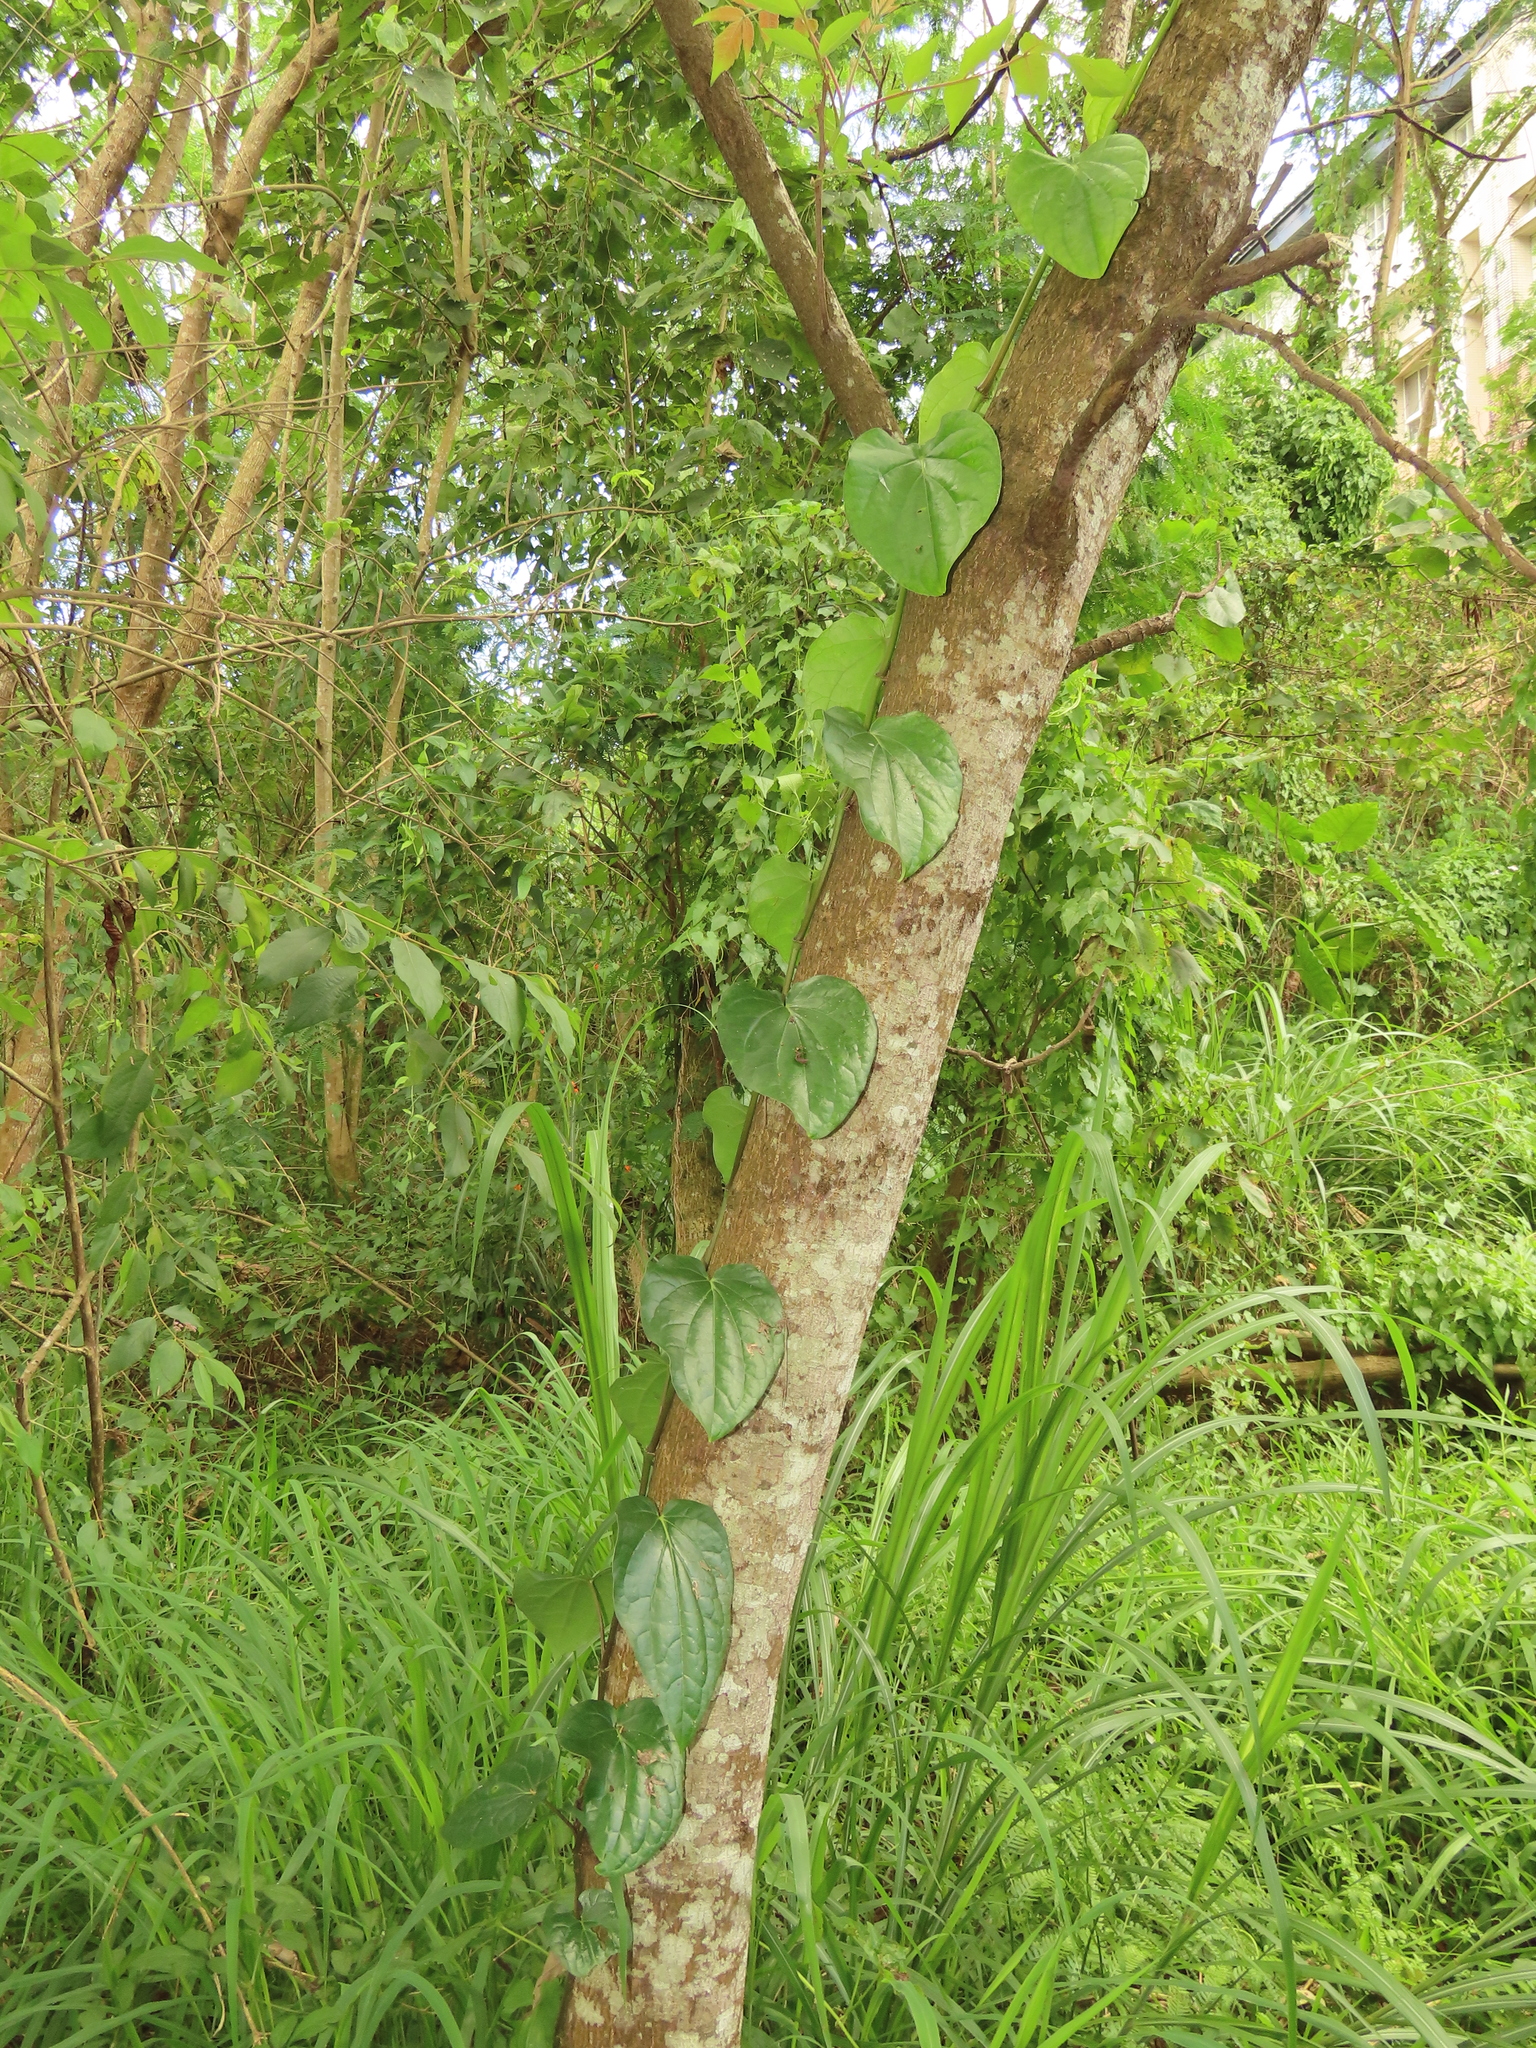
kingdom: Plantae
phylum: Tracheophyta
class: Magnoliopsida
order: Piperales
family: Piperaceae
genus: Piper
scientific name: Piper betle
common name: Betel pepper
